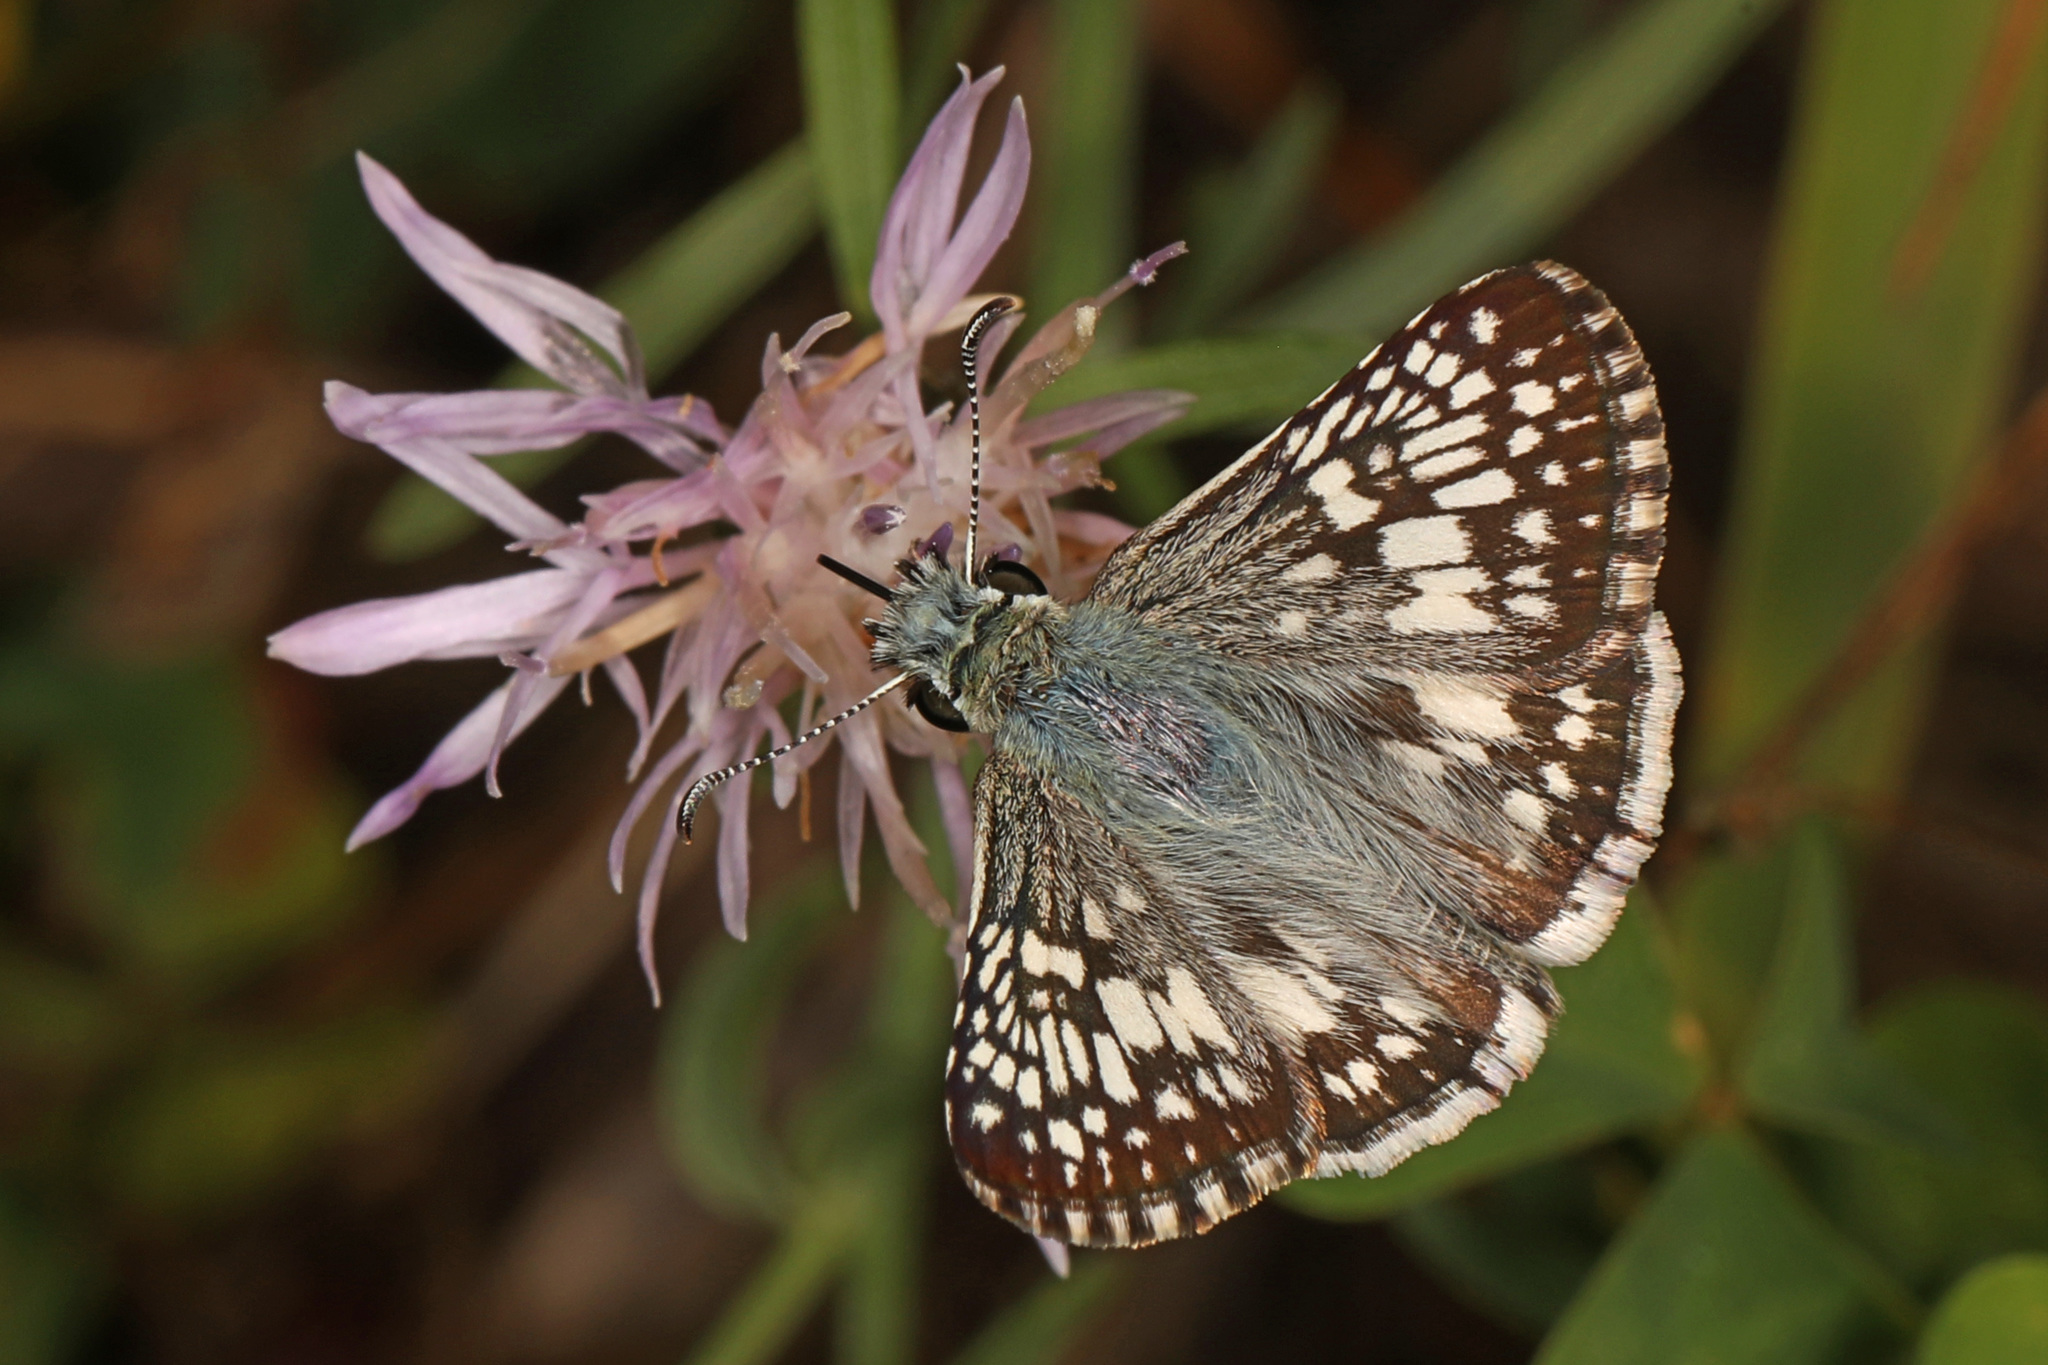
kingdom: Animalia
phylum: Arthropoda
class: Insecta
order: Lepidoptera
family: Hesperiidae
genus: Burnsius
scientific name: Burnsius communis
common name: Common checkered-skipper
